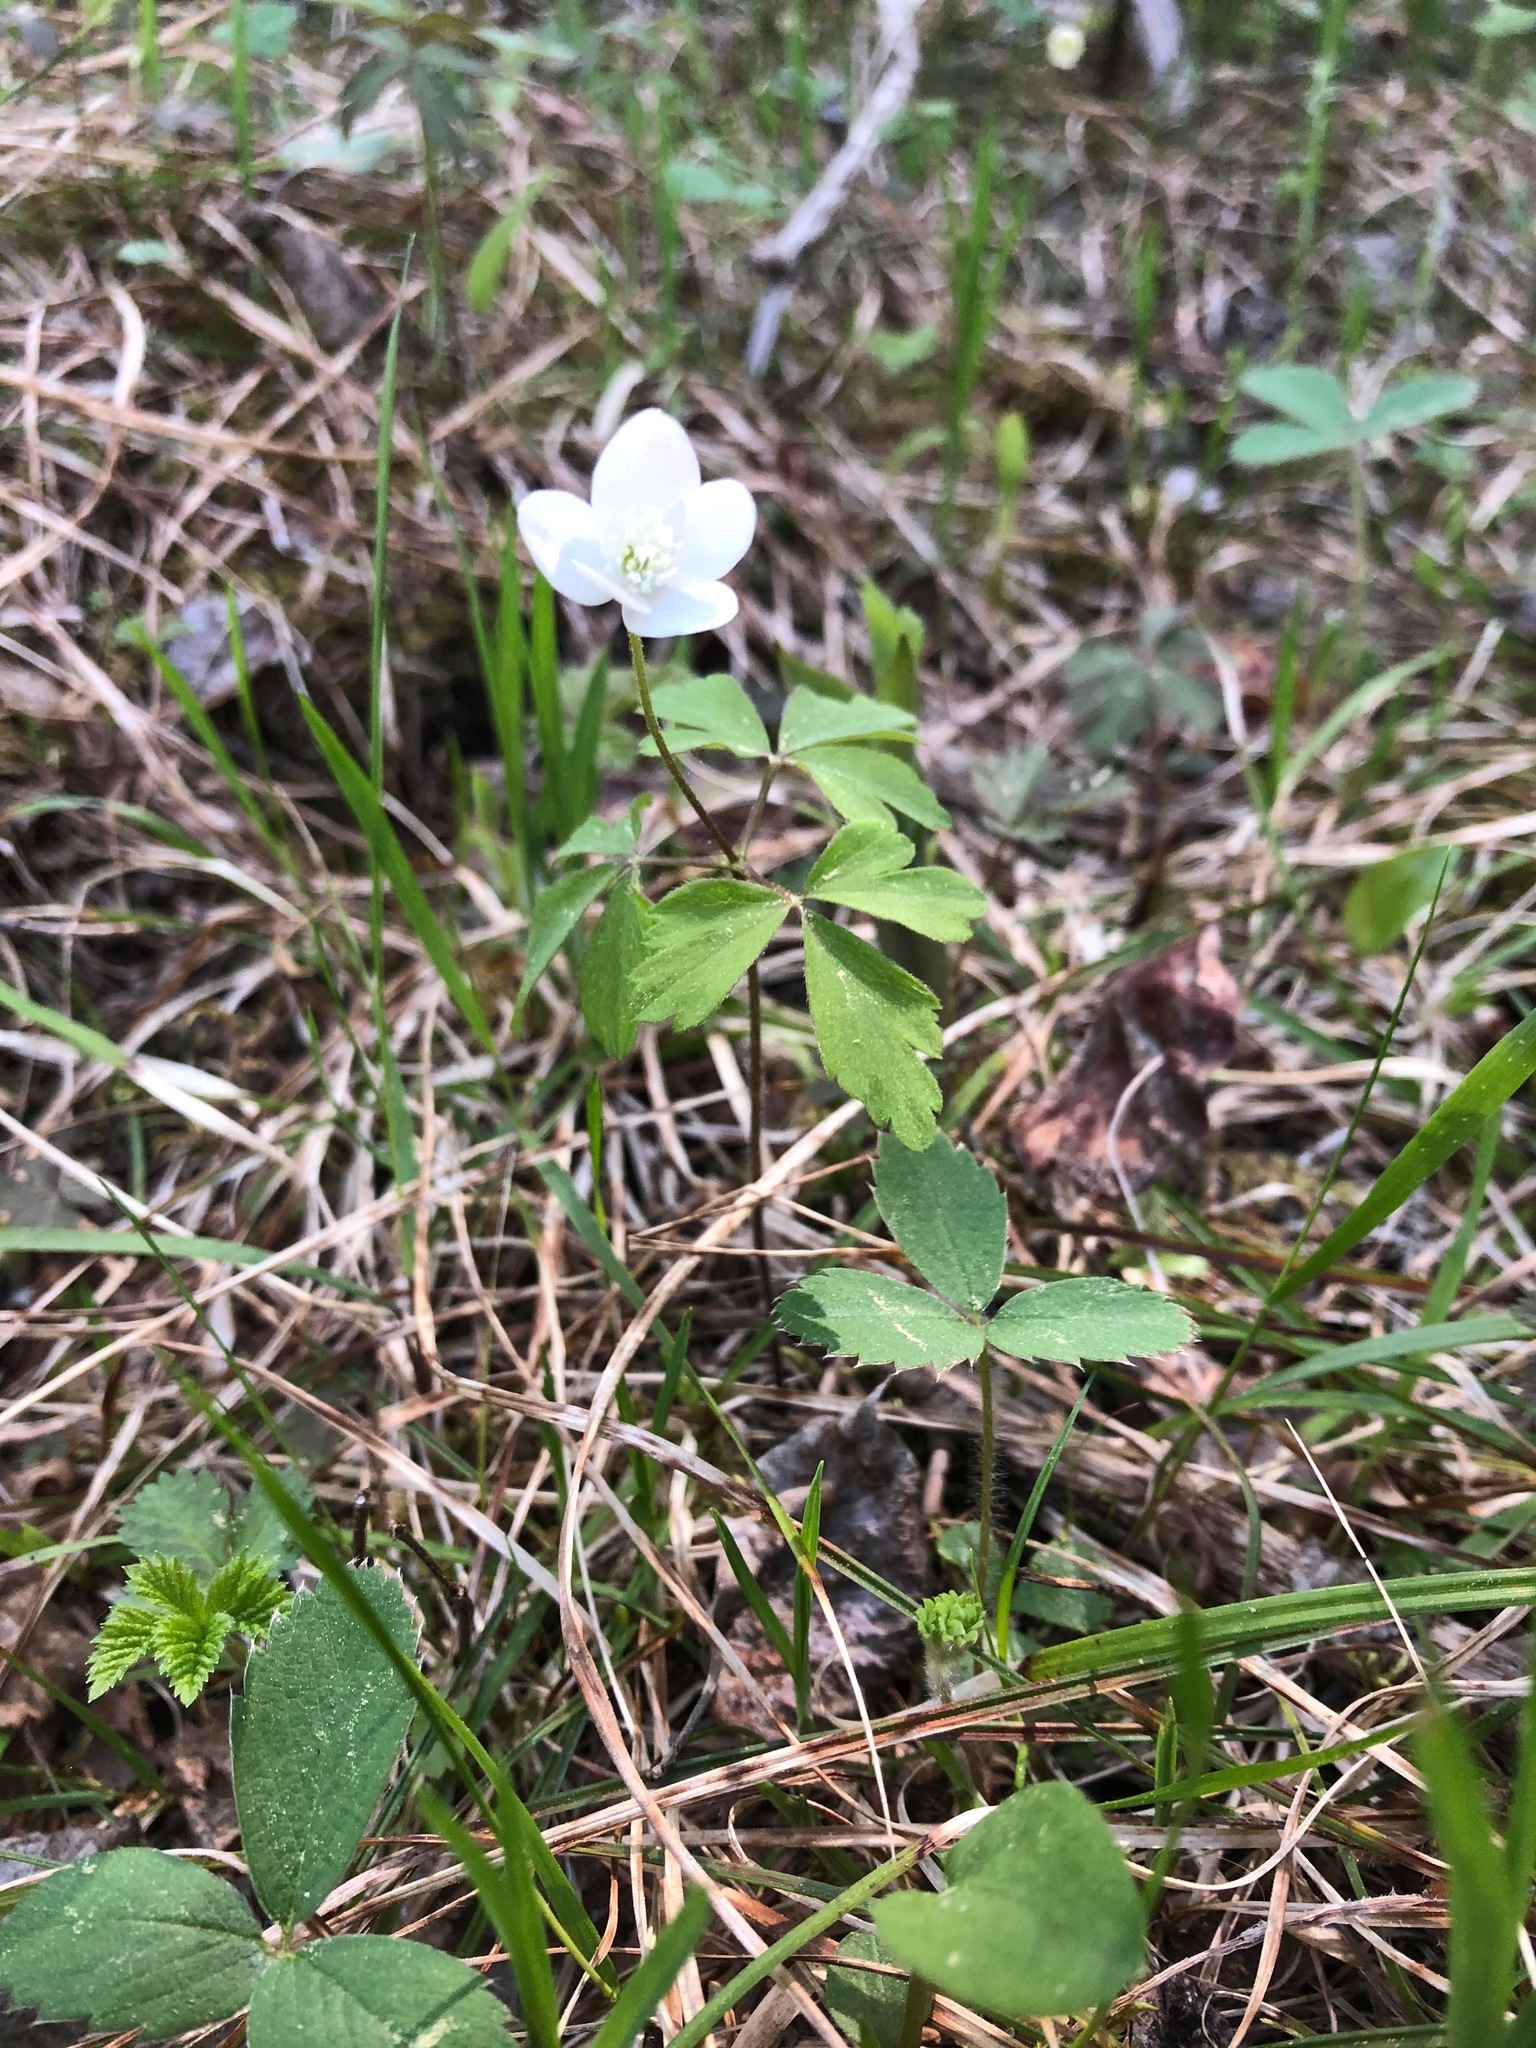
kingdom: Plantae
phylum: Tracheophyta
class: Magnoliopsida
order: Ranunculales
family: Ranunculaceae
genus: Anemone
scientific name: Anemone quinquefolia
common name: Wood anemone
